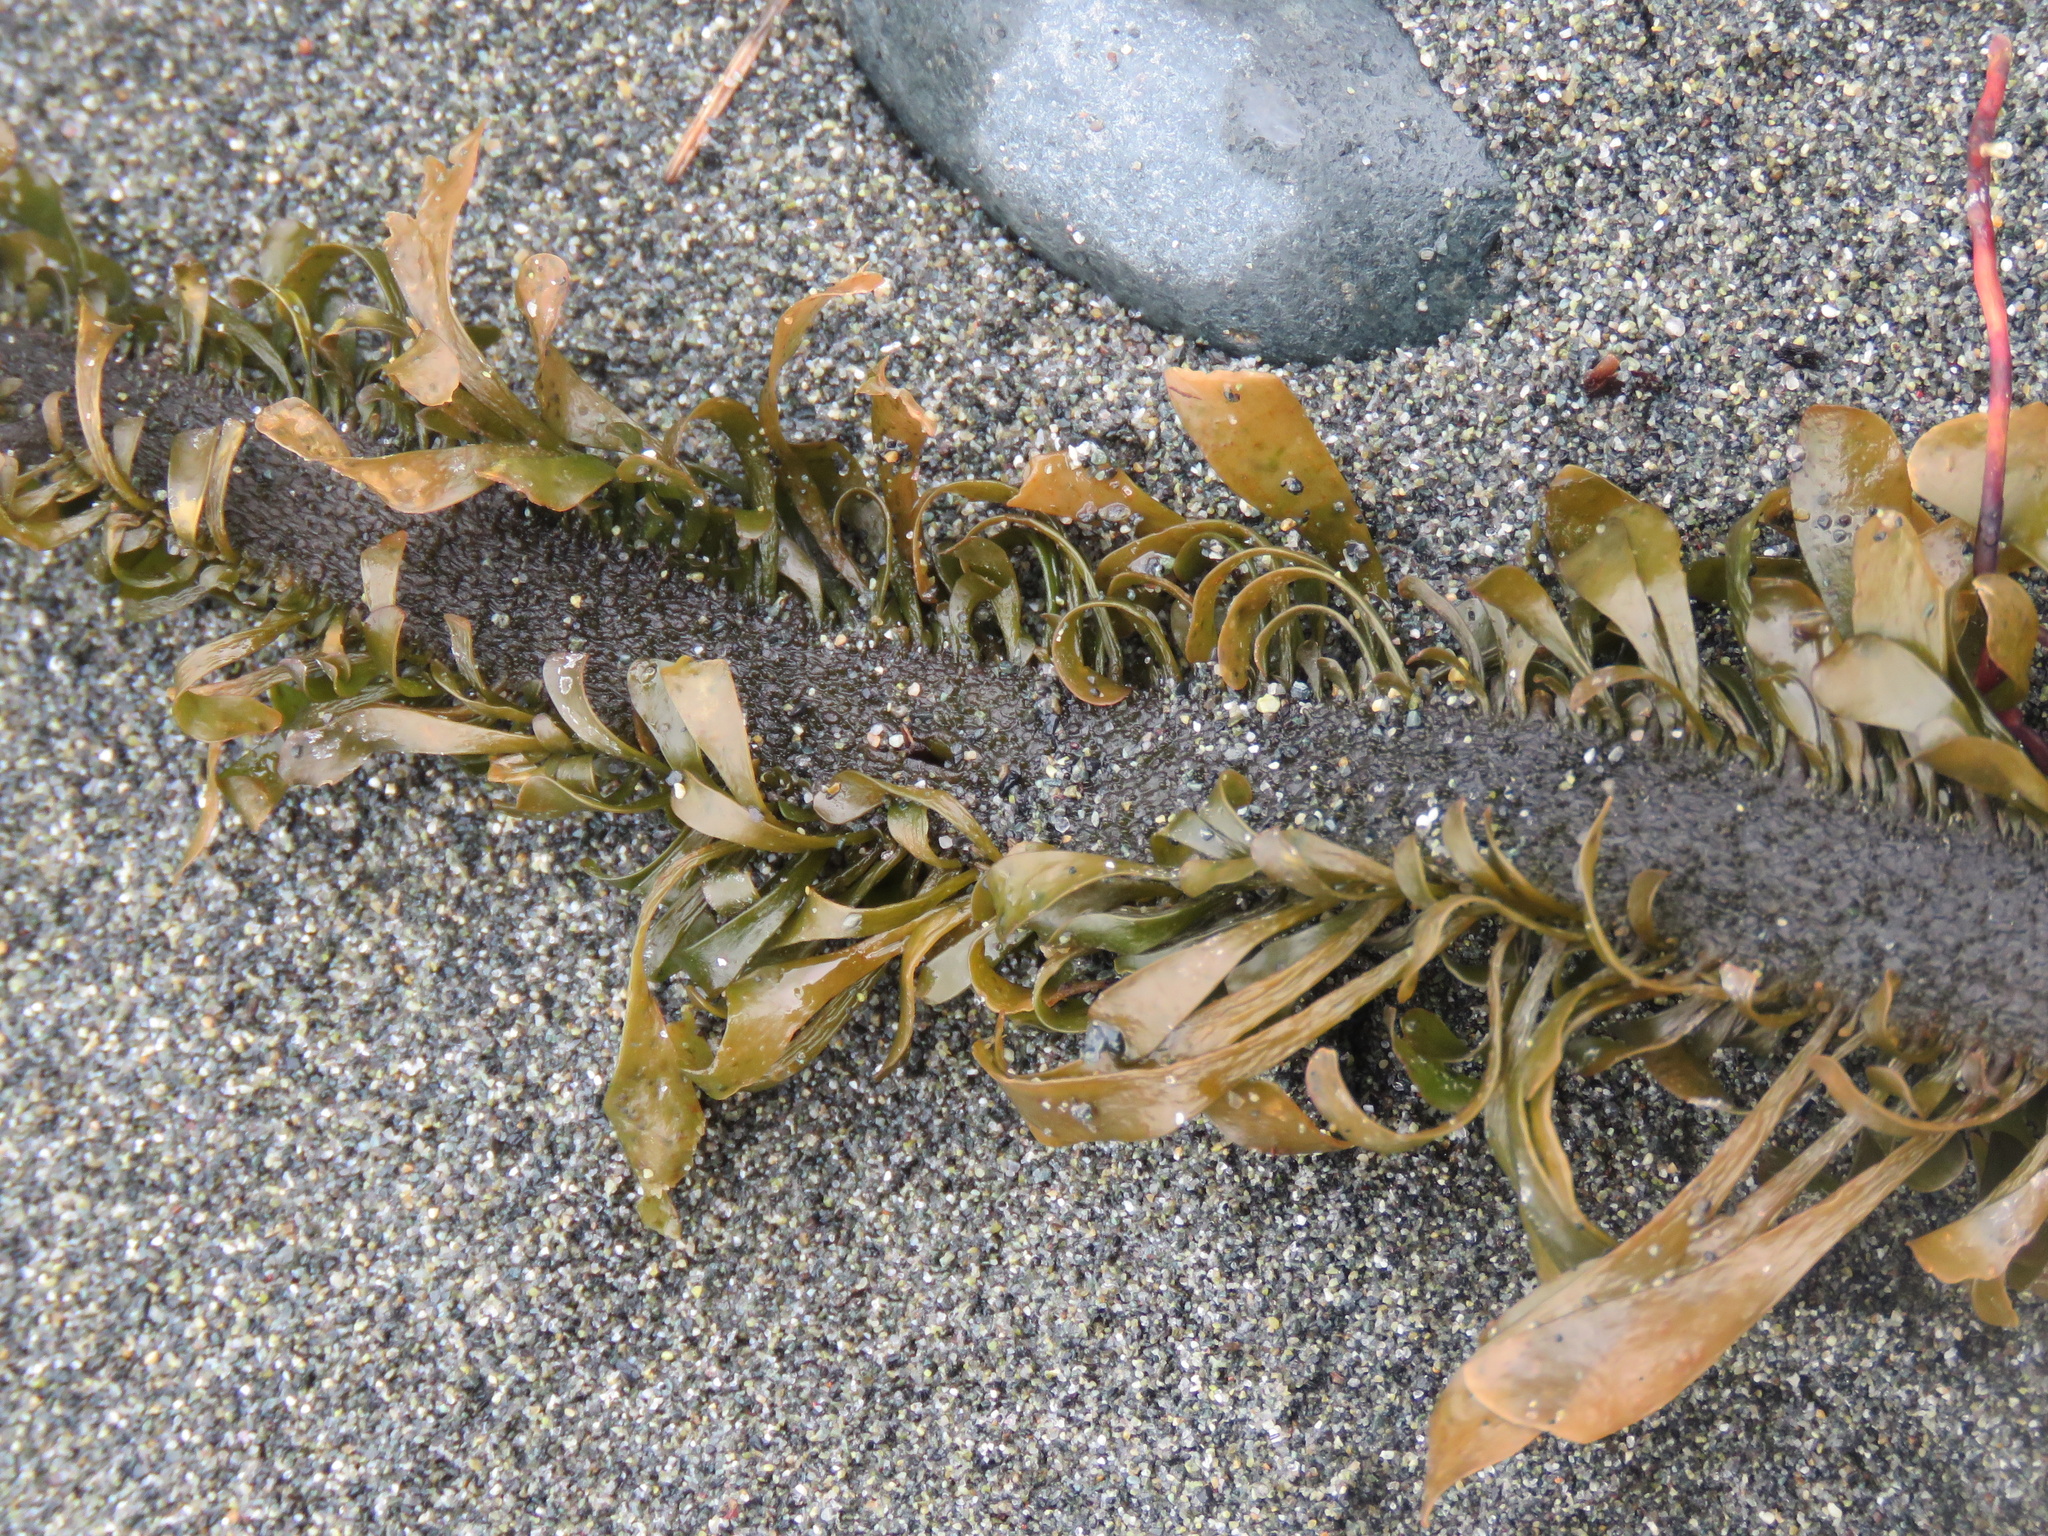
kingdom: Chromista
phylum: Ochrophyta
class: Phaeophyceae
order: Laminariales
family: Lessoniaceae
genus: Egregia
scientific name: Egregia menziesii
